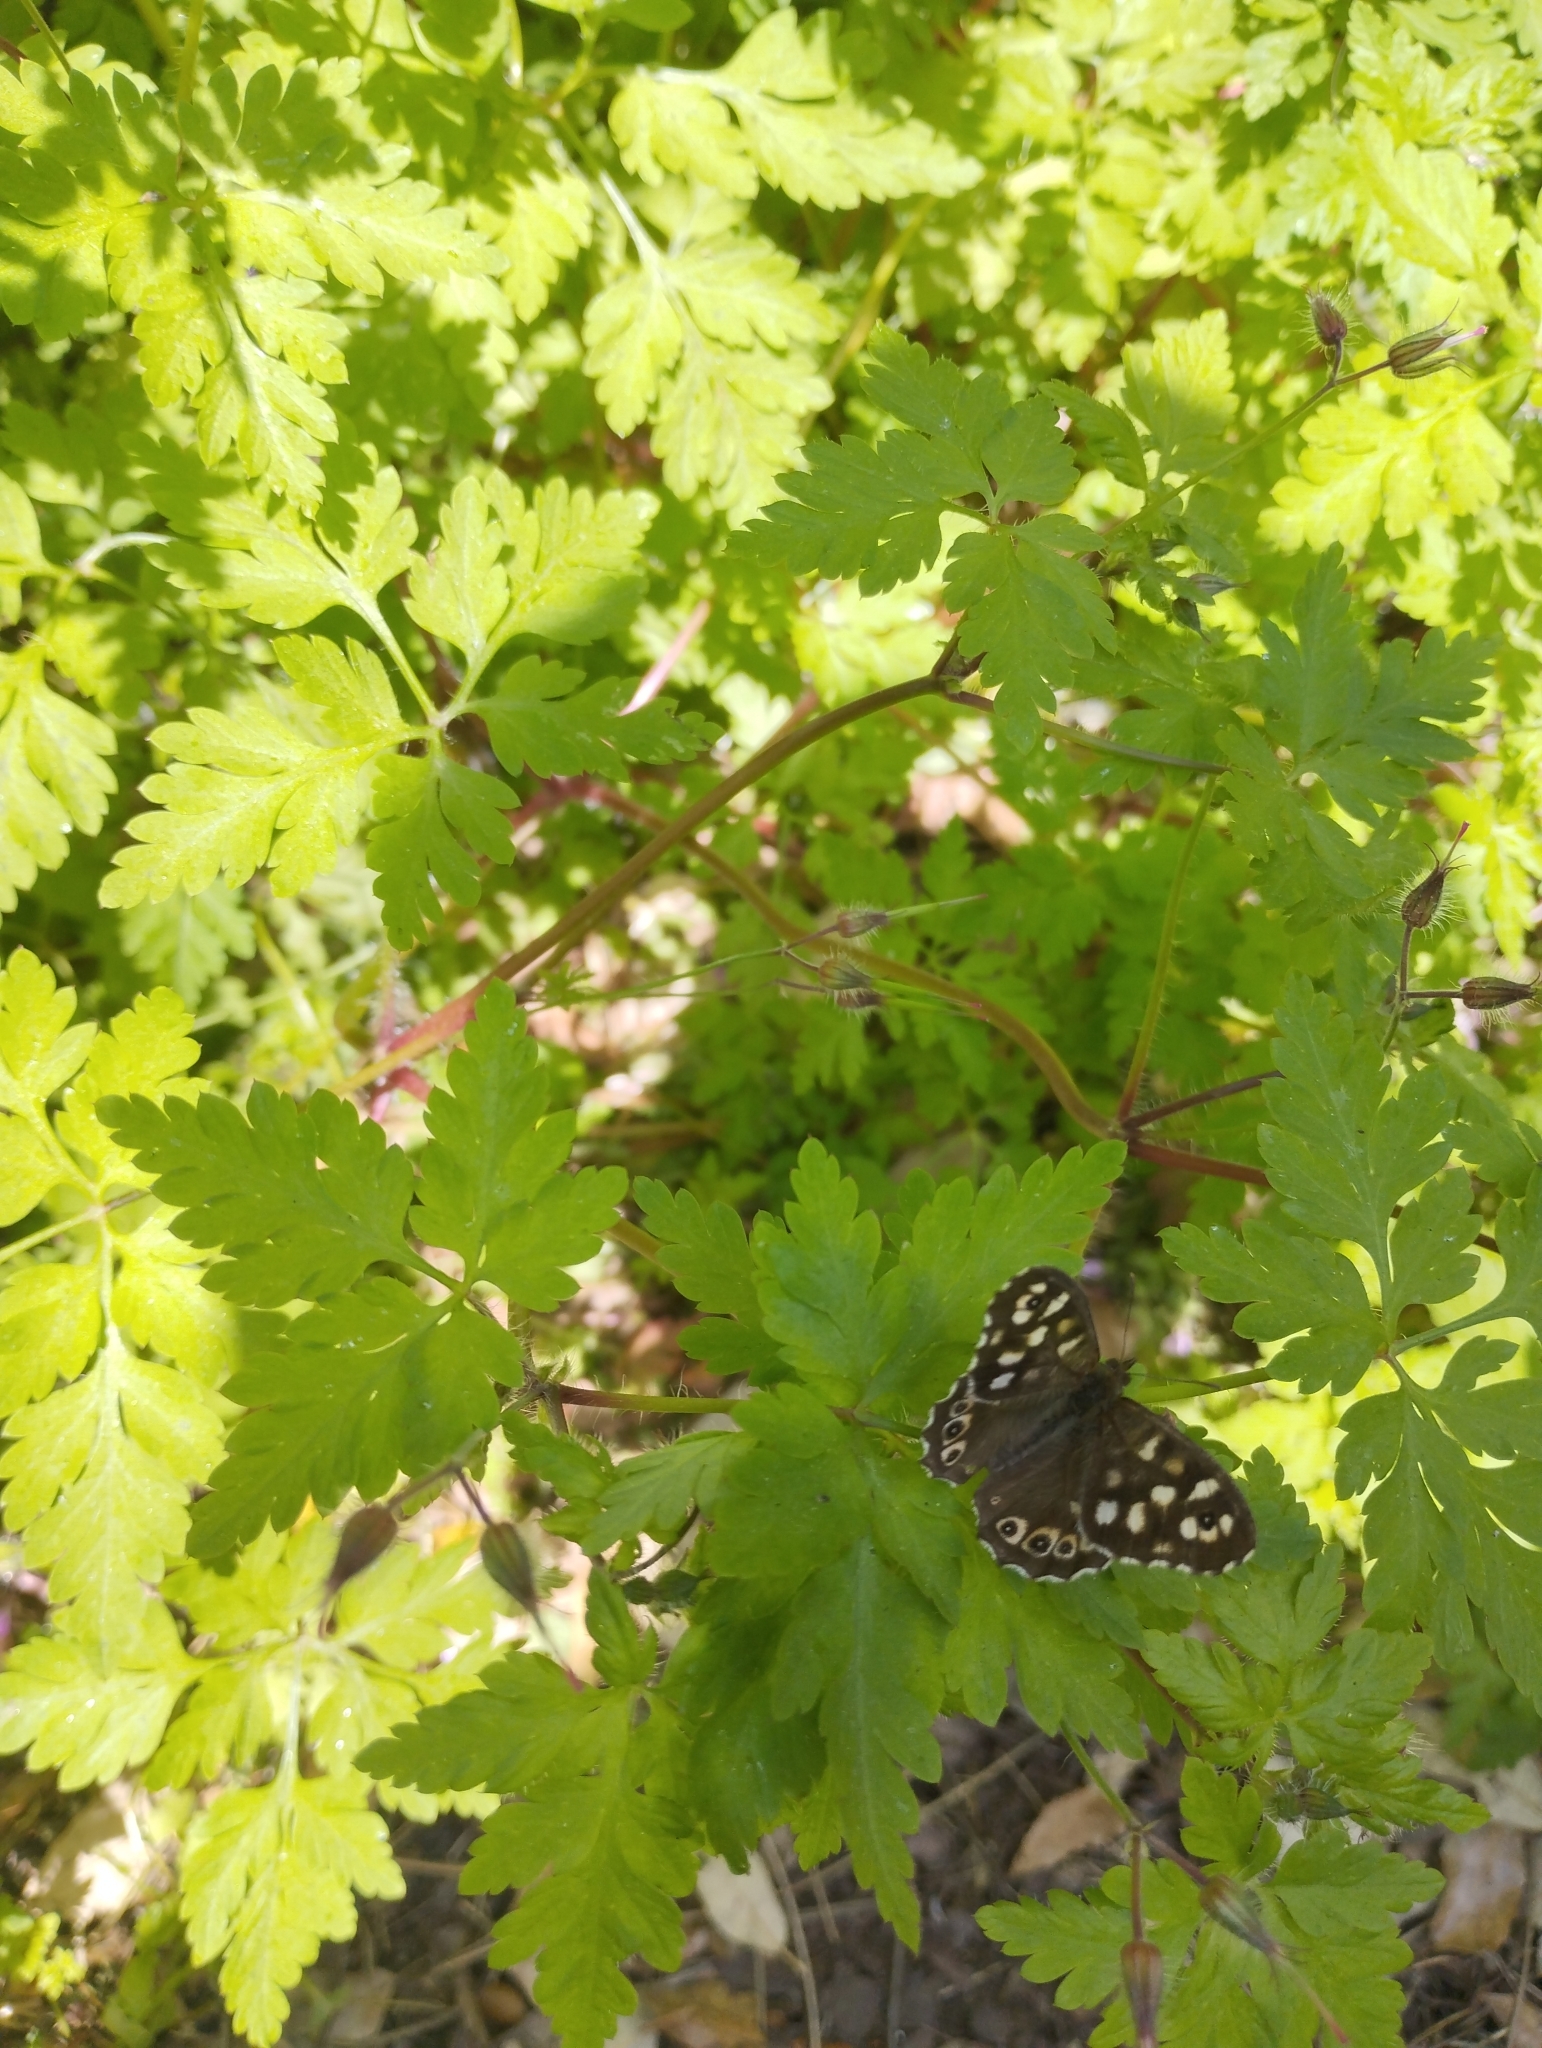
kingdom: Animalia
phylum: Arthropoda
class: Insecta
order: Lepidoptera
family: Nymphalidae
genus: Pararge
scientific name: Pararge aegeria
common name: Speckled wood
